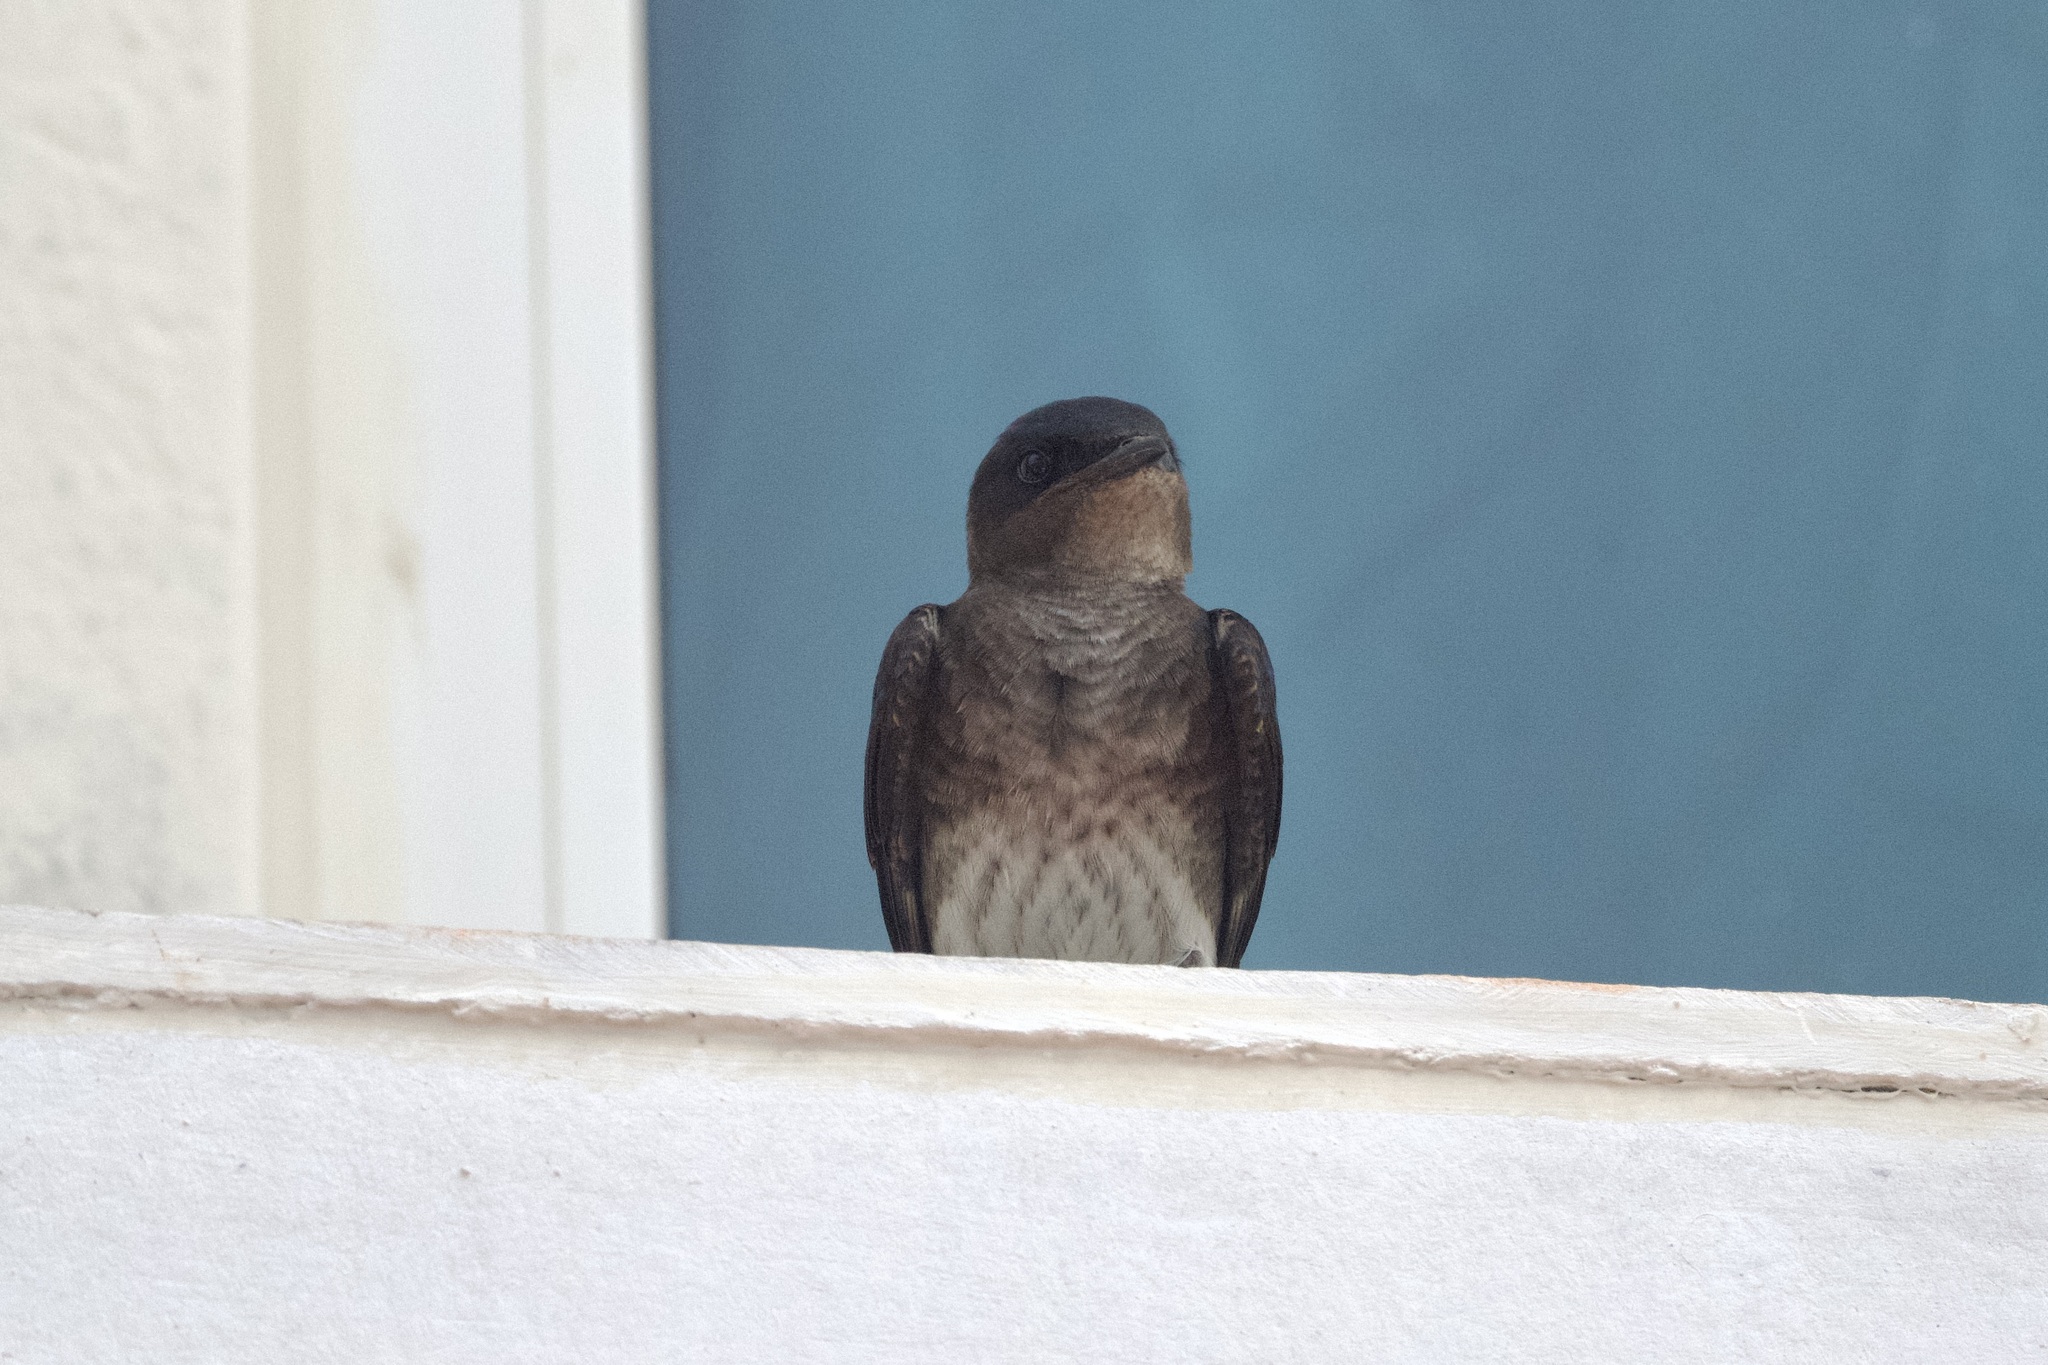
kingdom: Animalia
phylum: Chordata
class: Aves
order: Passeriformes
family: Hirundinidae
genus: Progne
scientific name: Progne chalybea
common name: Grey-breasted martin
